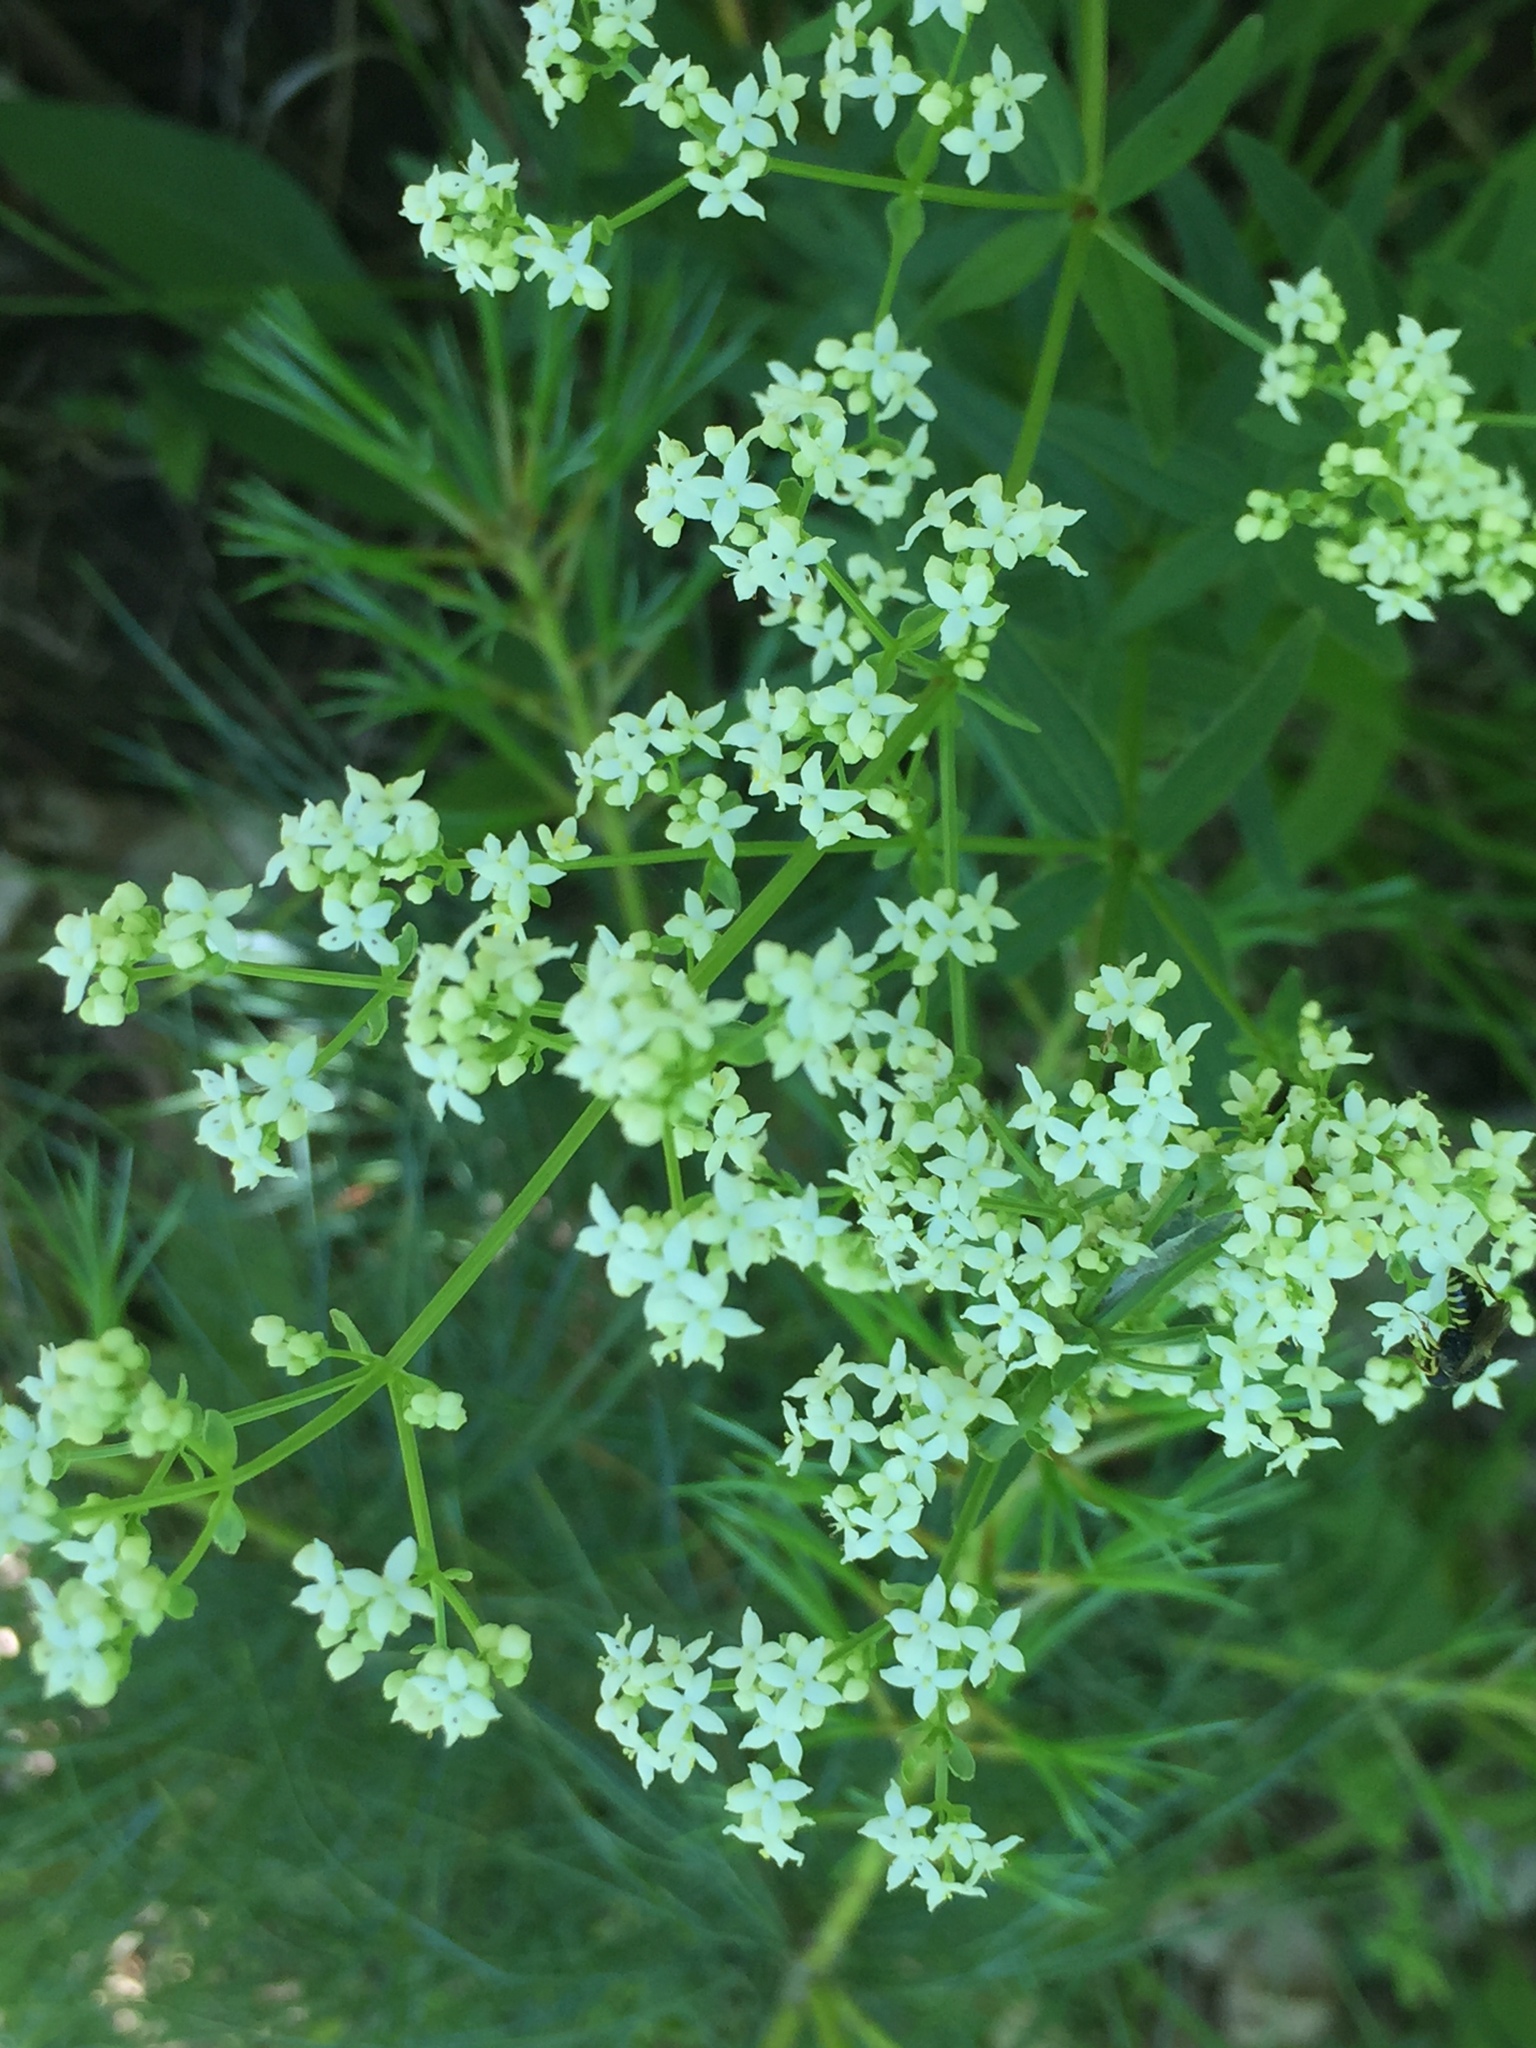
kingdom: Plantae
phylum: Tracheophyta
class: Magnoliopsida
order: Gentianales
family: Rubiaceae
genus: Galium
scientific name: Galium boreale
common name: Northern bedstraw
